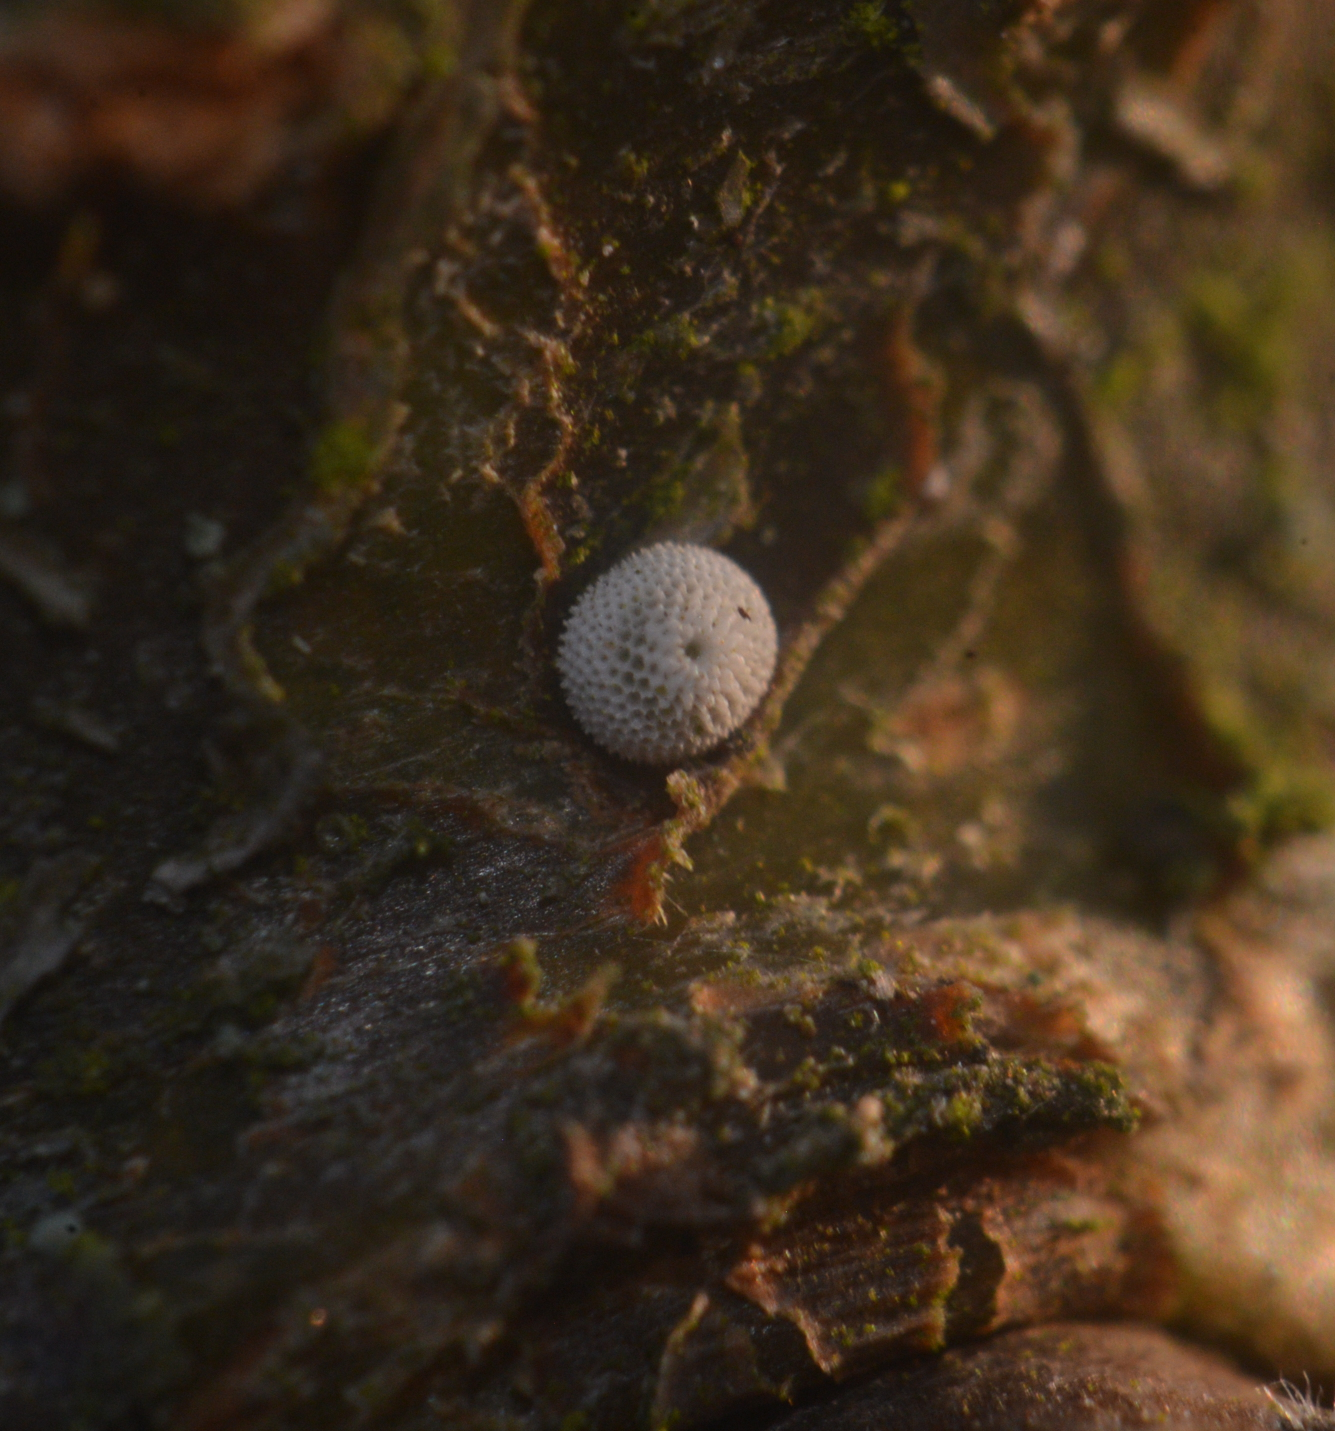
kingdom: Animalia
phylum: Arthropoda
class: Insecta
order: Lepidoptera
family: Lycaenidae
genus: Thecla
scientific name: Thecla betulae
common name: Brown hairstreak
